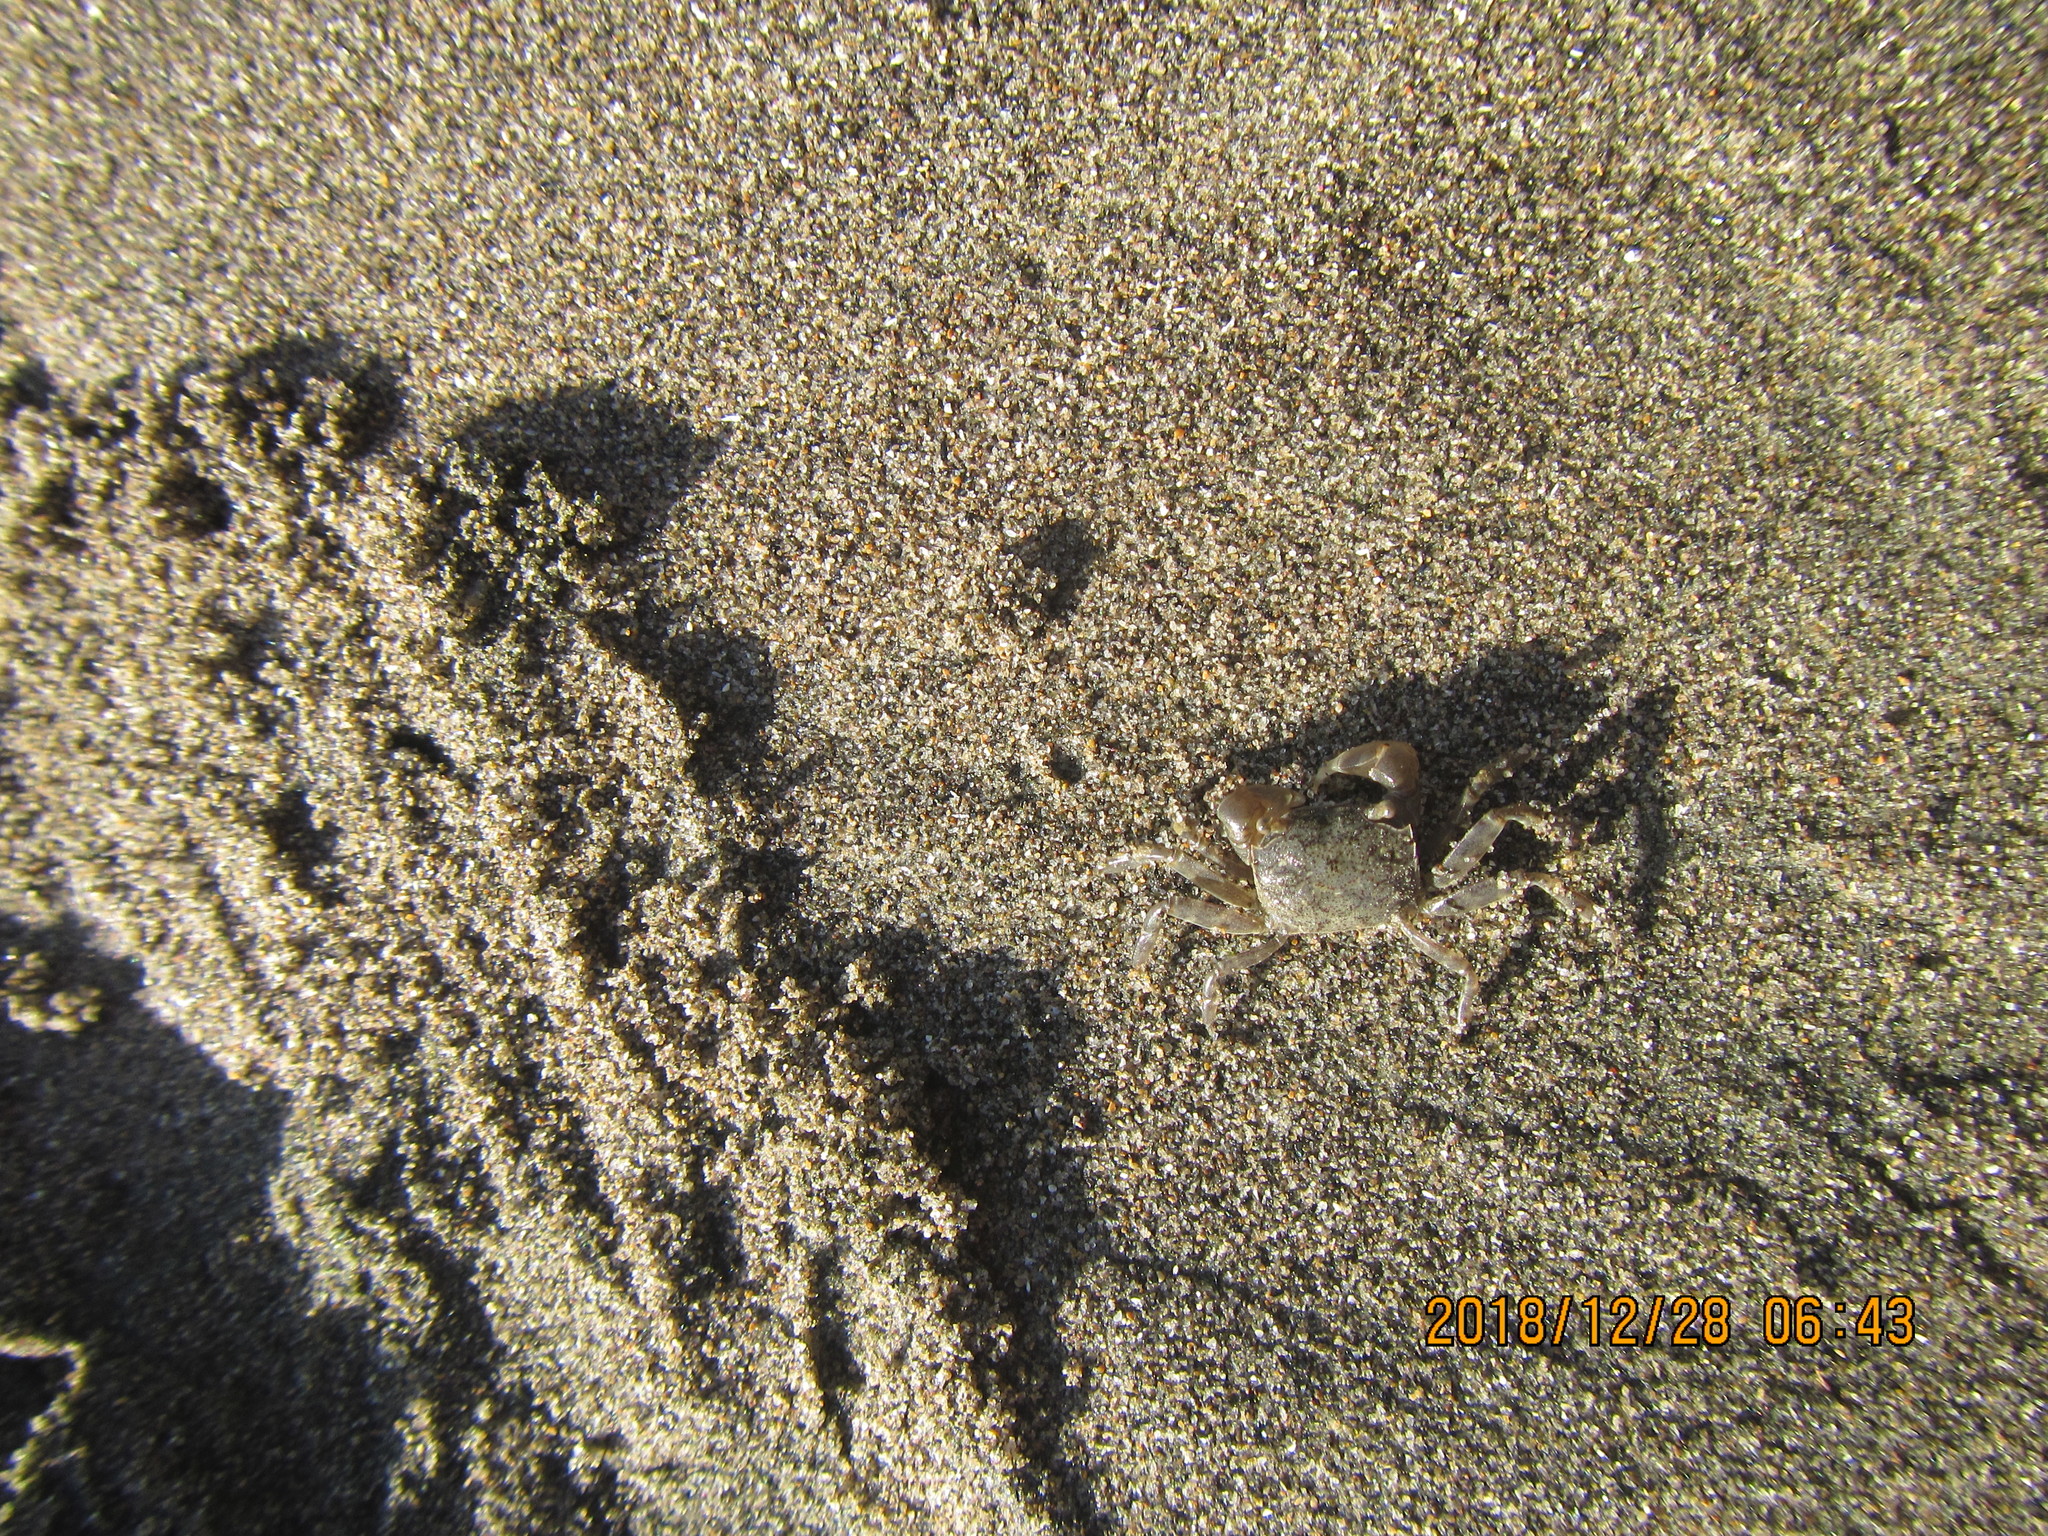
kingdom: Animalia
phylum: Arthropoda
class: Malacostraca
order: Decapoda
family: Varunidae
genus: Austrohelice
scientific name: Austrohelice crassa
